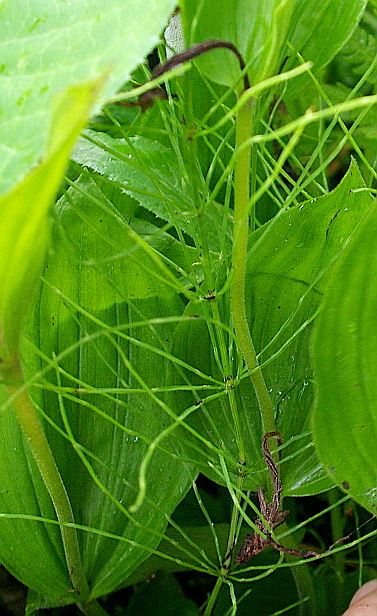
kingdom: Plantae
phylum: Tracheophyta
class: Polypodiopsida
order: Equisetales
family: Equisetaceae
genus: Equisetum
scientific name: Equisetum arvense
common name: Field horsetail
